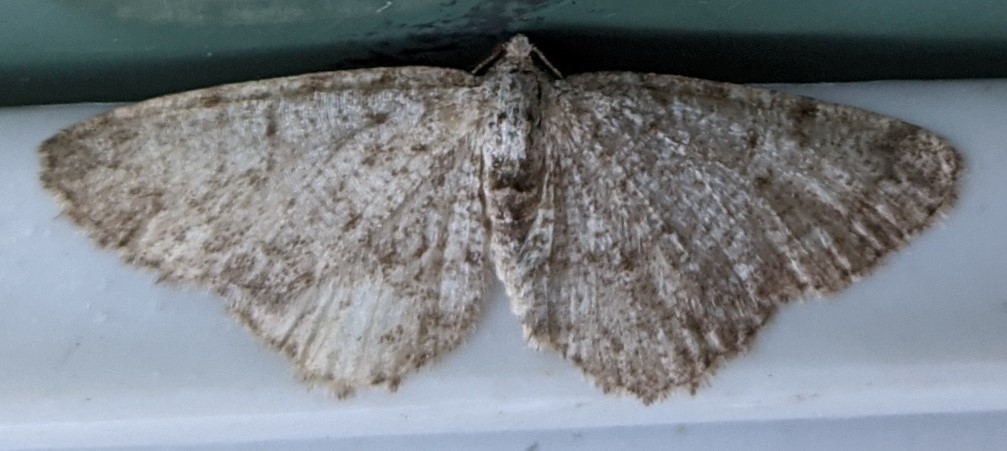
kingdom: Animalia
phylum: Arthropoda
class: Insecta
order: Lepidoptera
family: Geometridae
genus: Aethalura
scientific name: Aethalura intertexta
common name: Four-barred gray
